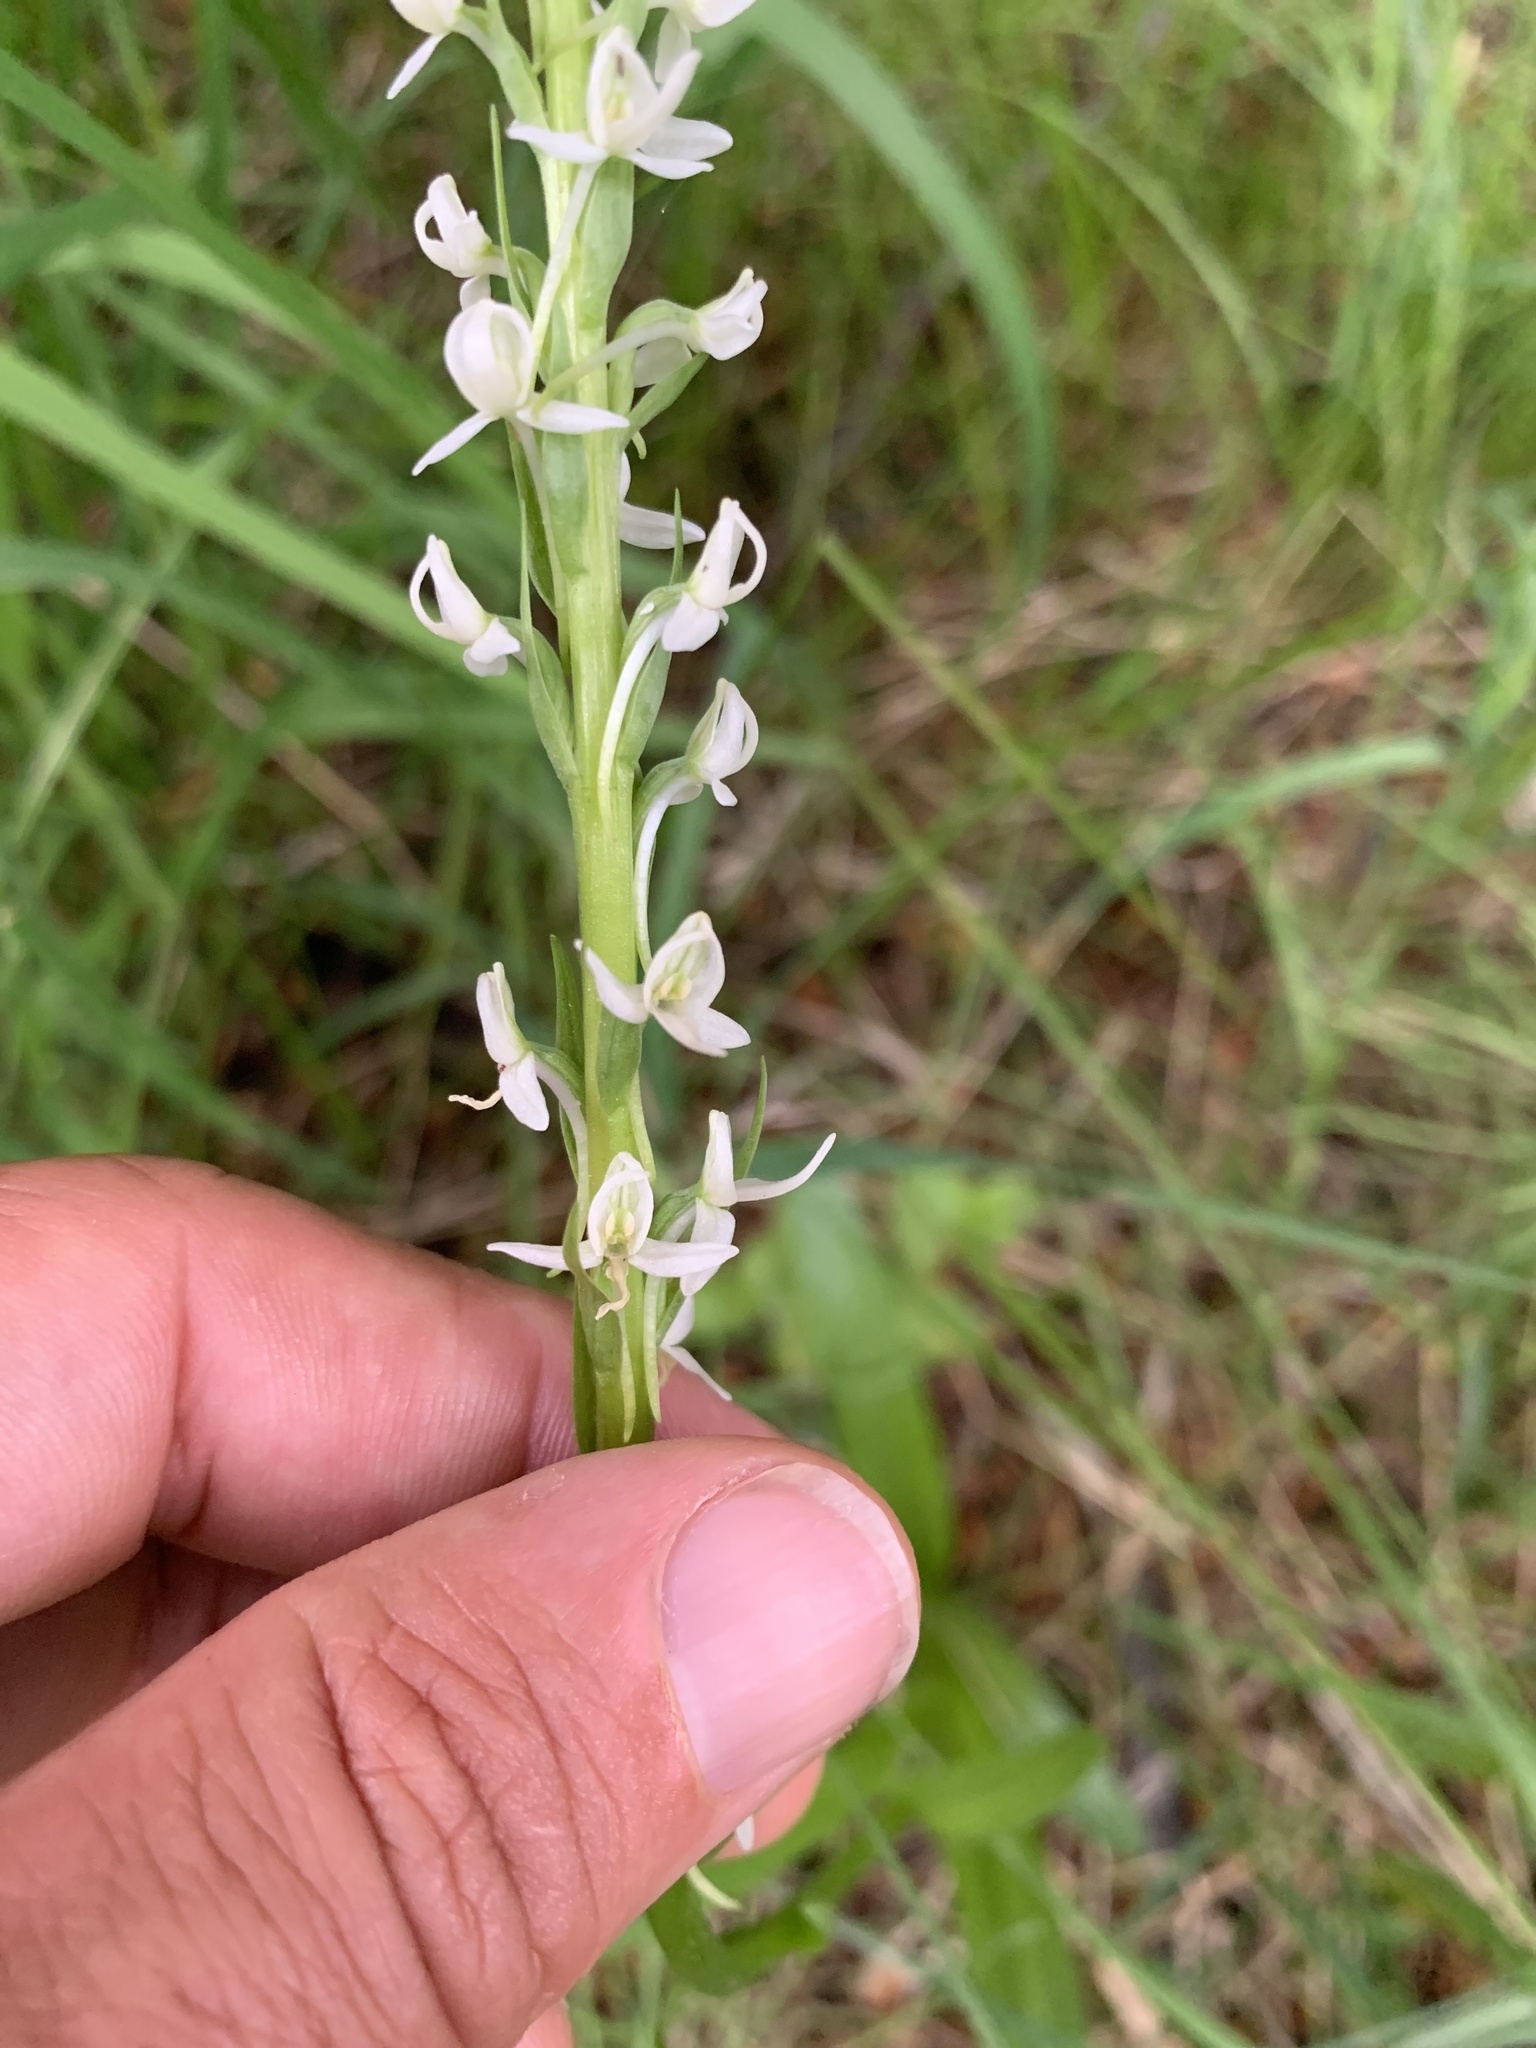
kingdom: Plantae
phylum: Tracheophyta
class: Liliopsida
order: Asparagales
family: Orchidaceae
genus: Platanthera
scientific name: Platanthera dilatata
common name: Bog candles
